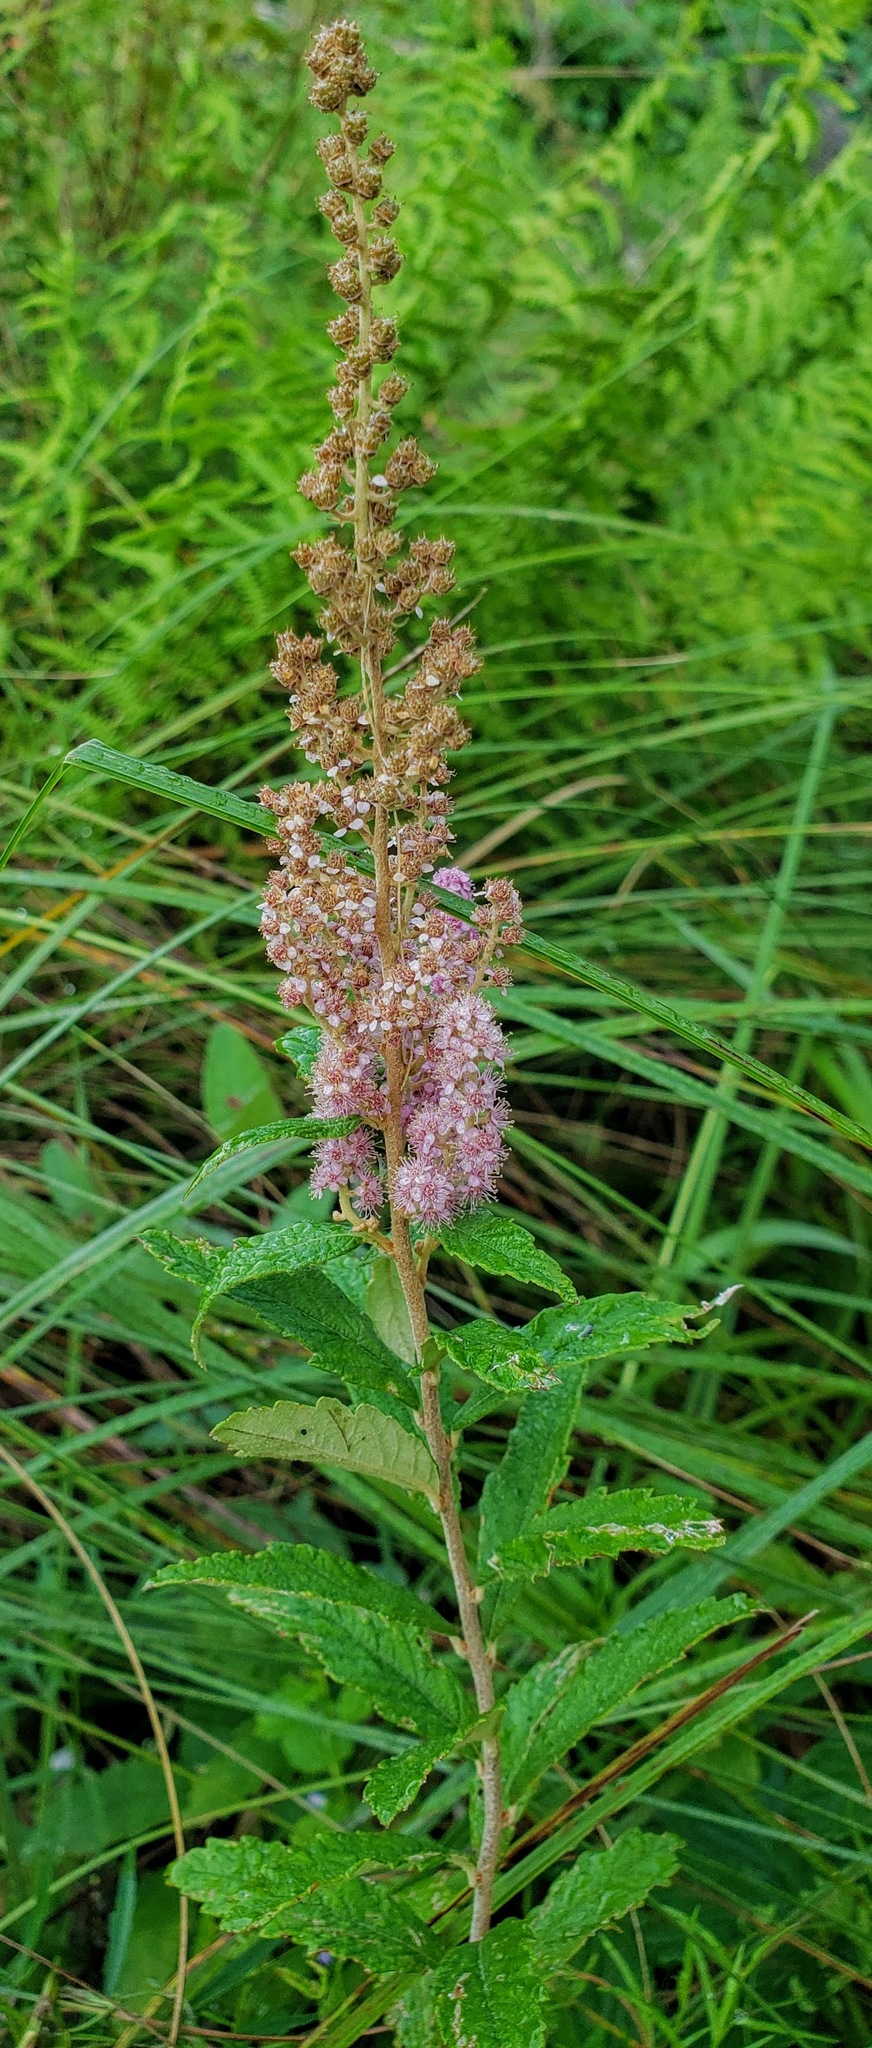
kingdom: Plantae
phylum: Tracheophyta
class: Magnoliopsida
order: Rosales
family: Rosaceae
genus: Spiraea
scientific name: Spiraea tomentosa
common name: Hardhack
